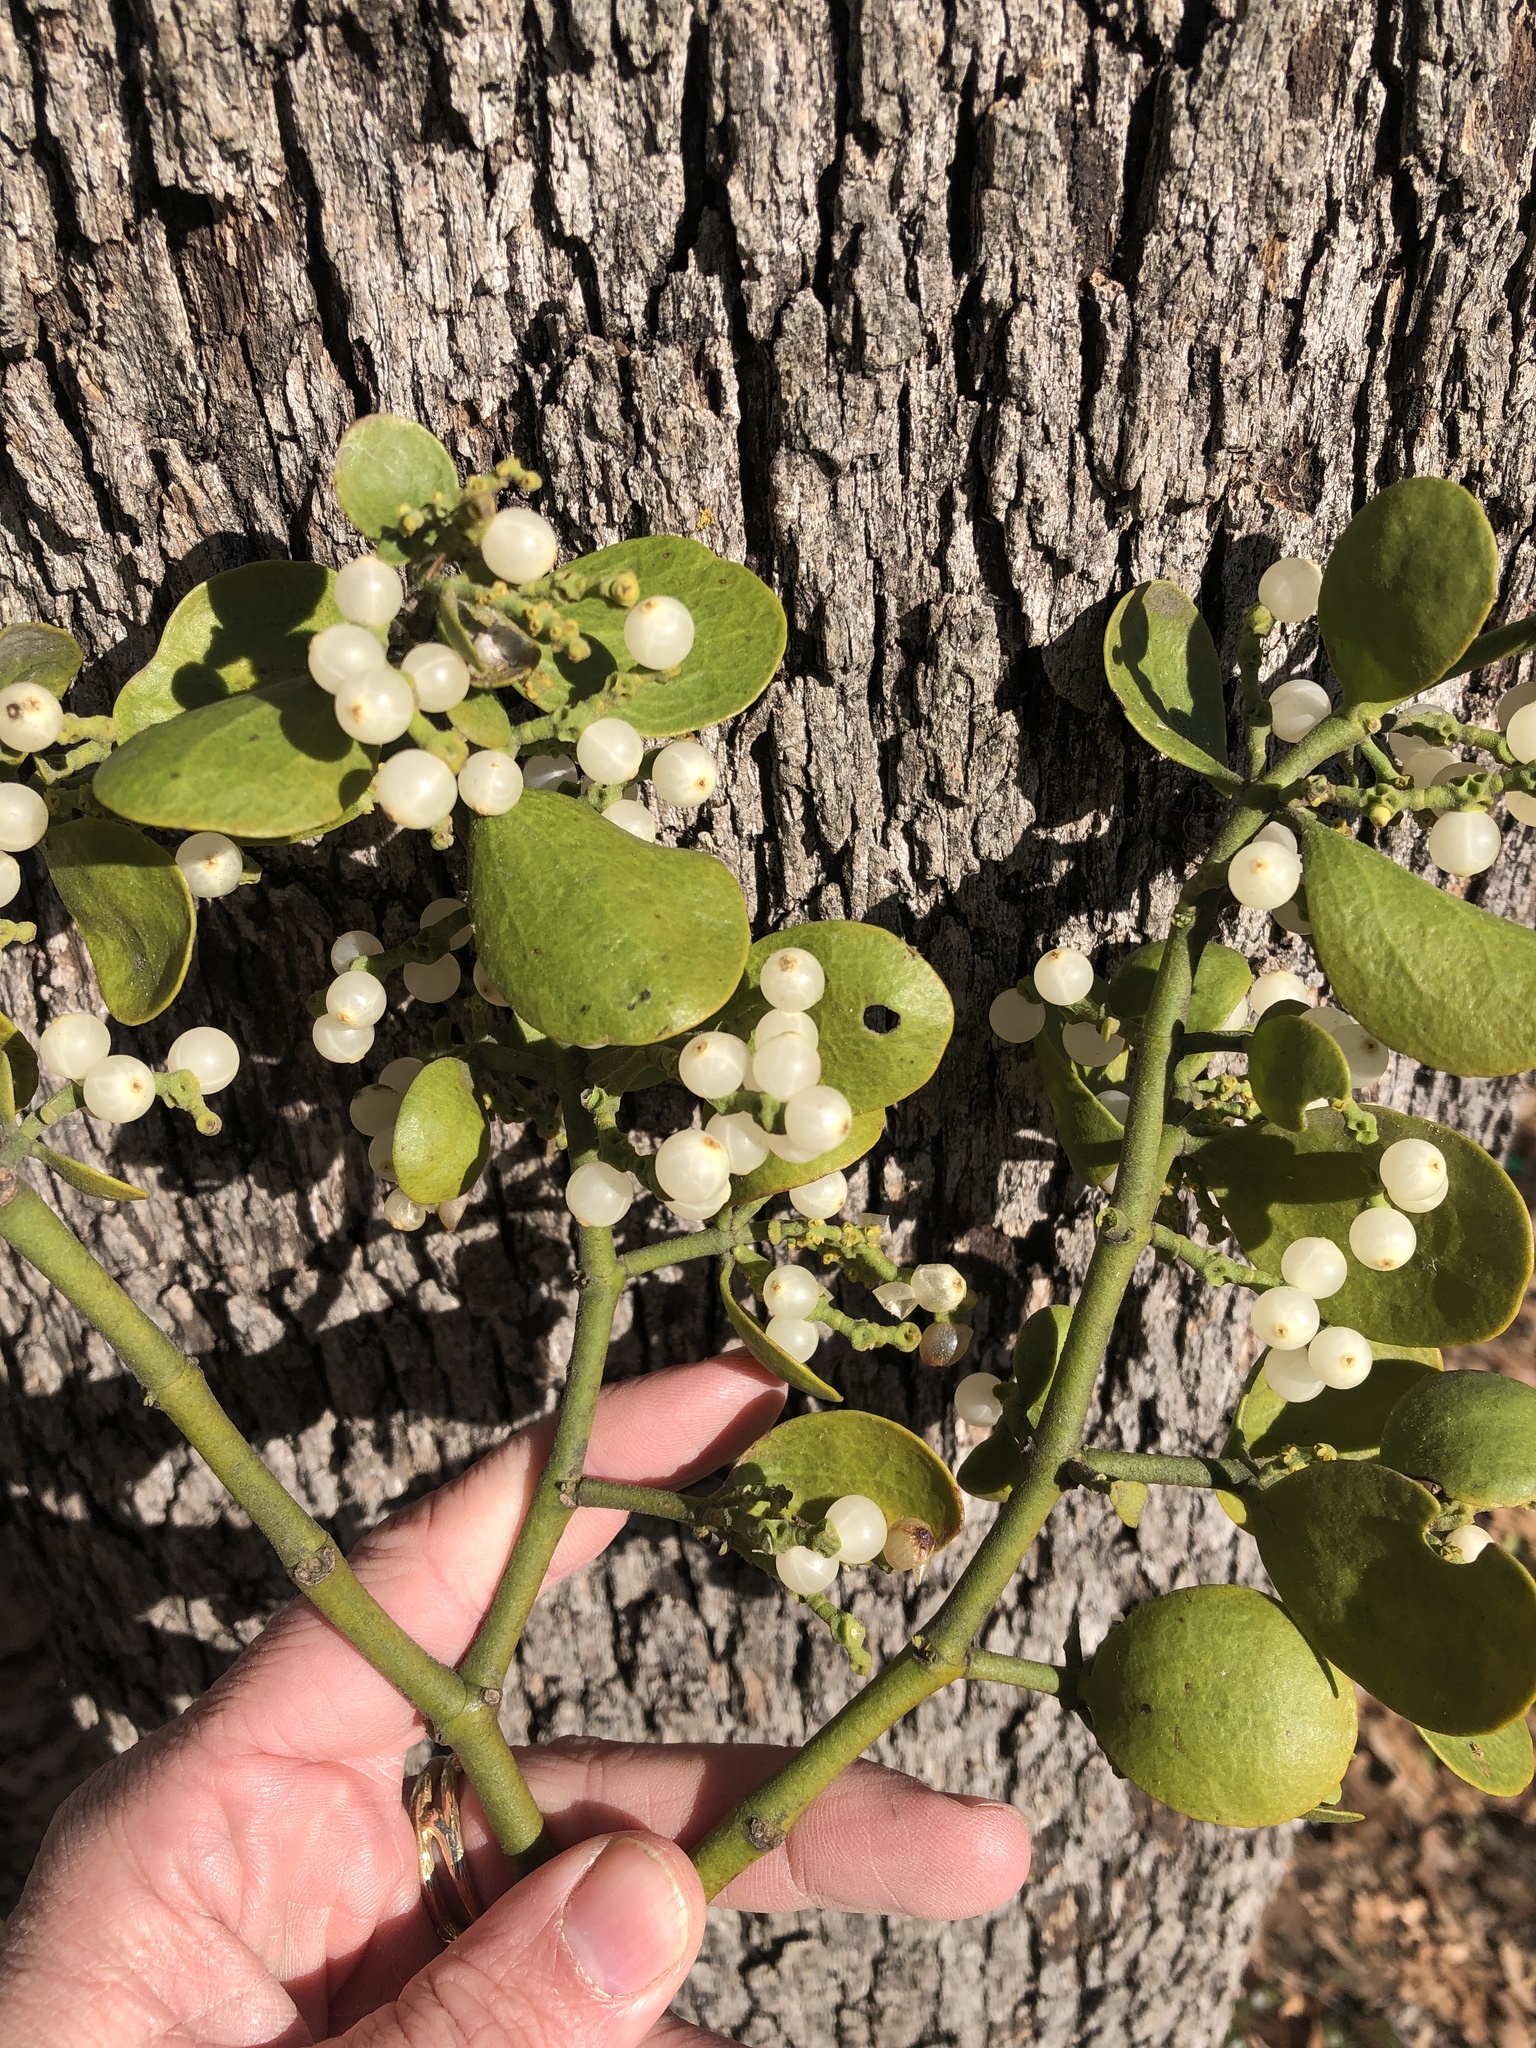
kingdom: Plantae
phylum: Tracheophyta
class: Magnoliopsida
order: Santalales
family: Viscaceae
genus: Phoradendron
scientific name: Phoradendron leucarpum
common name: Pacific mistletoe
